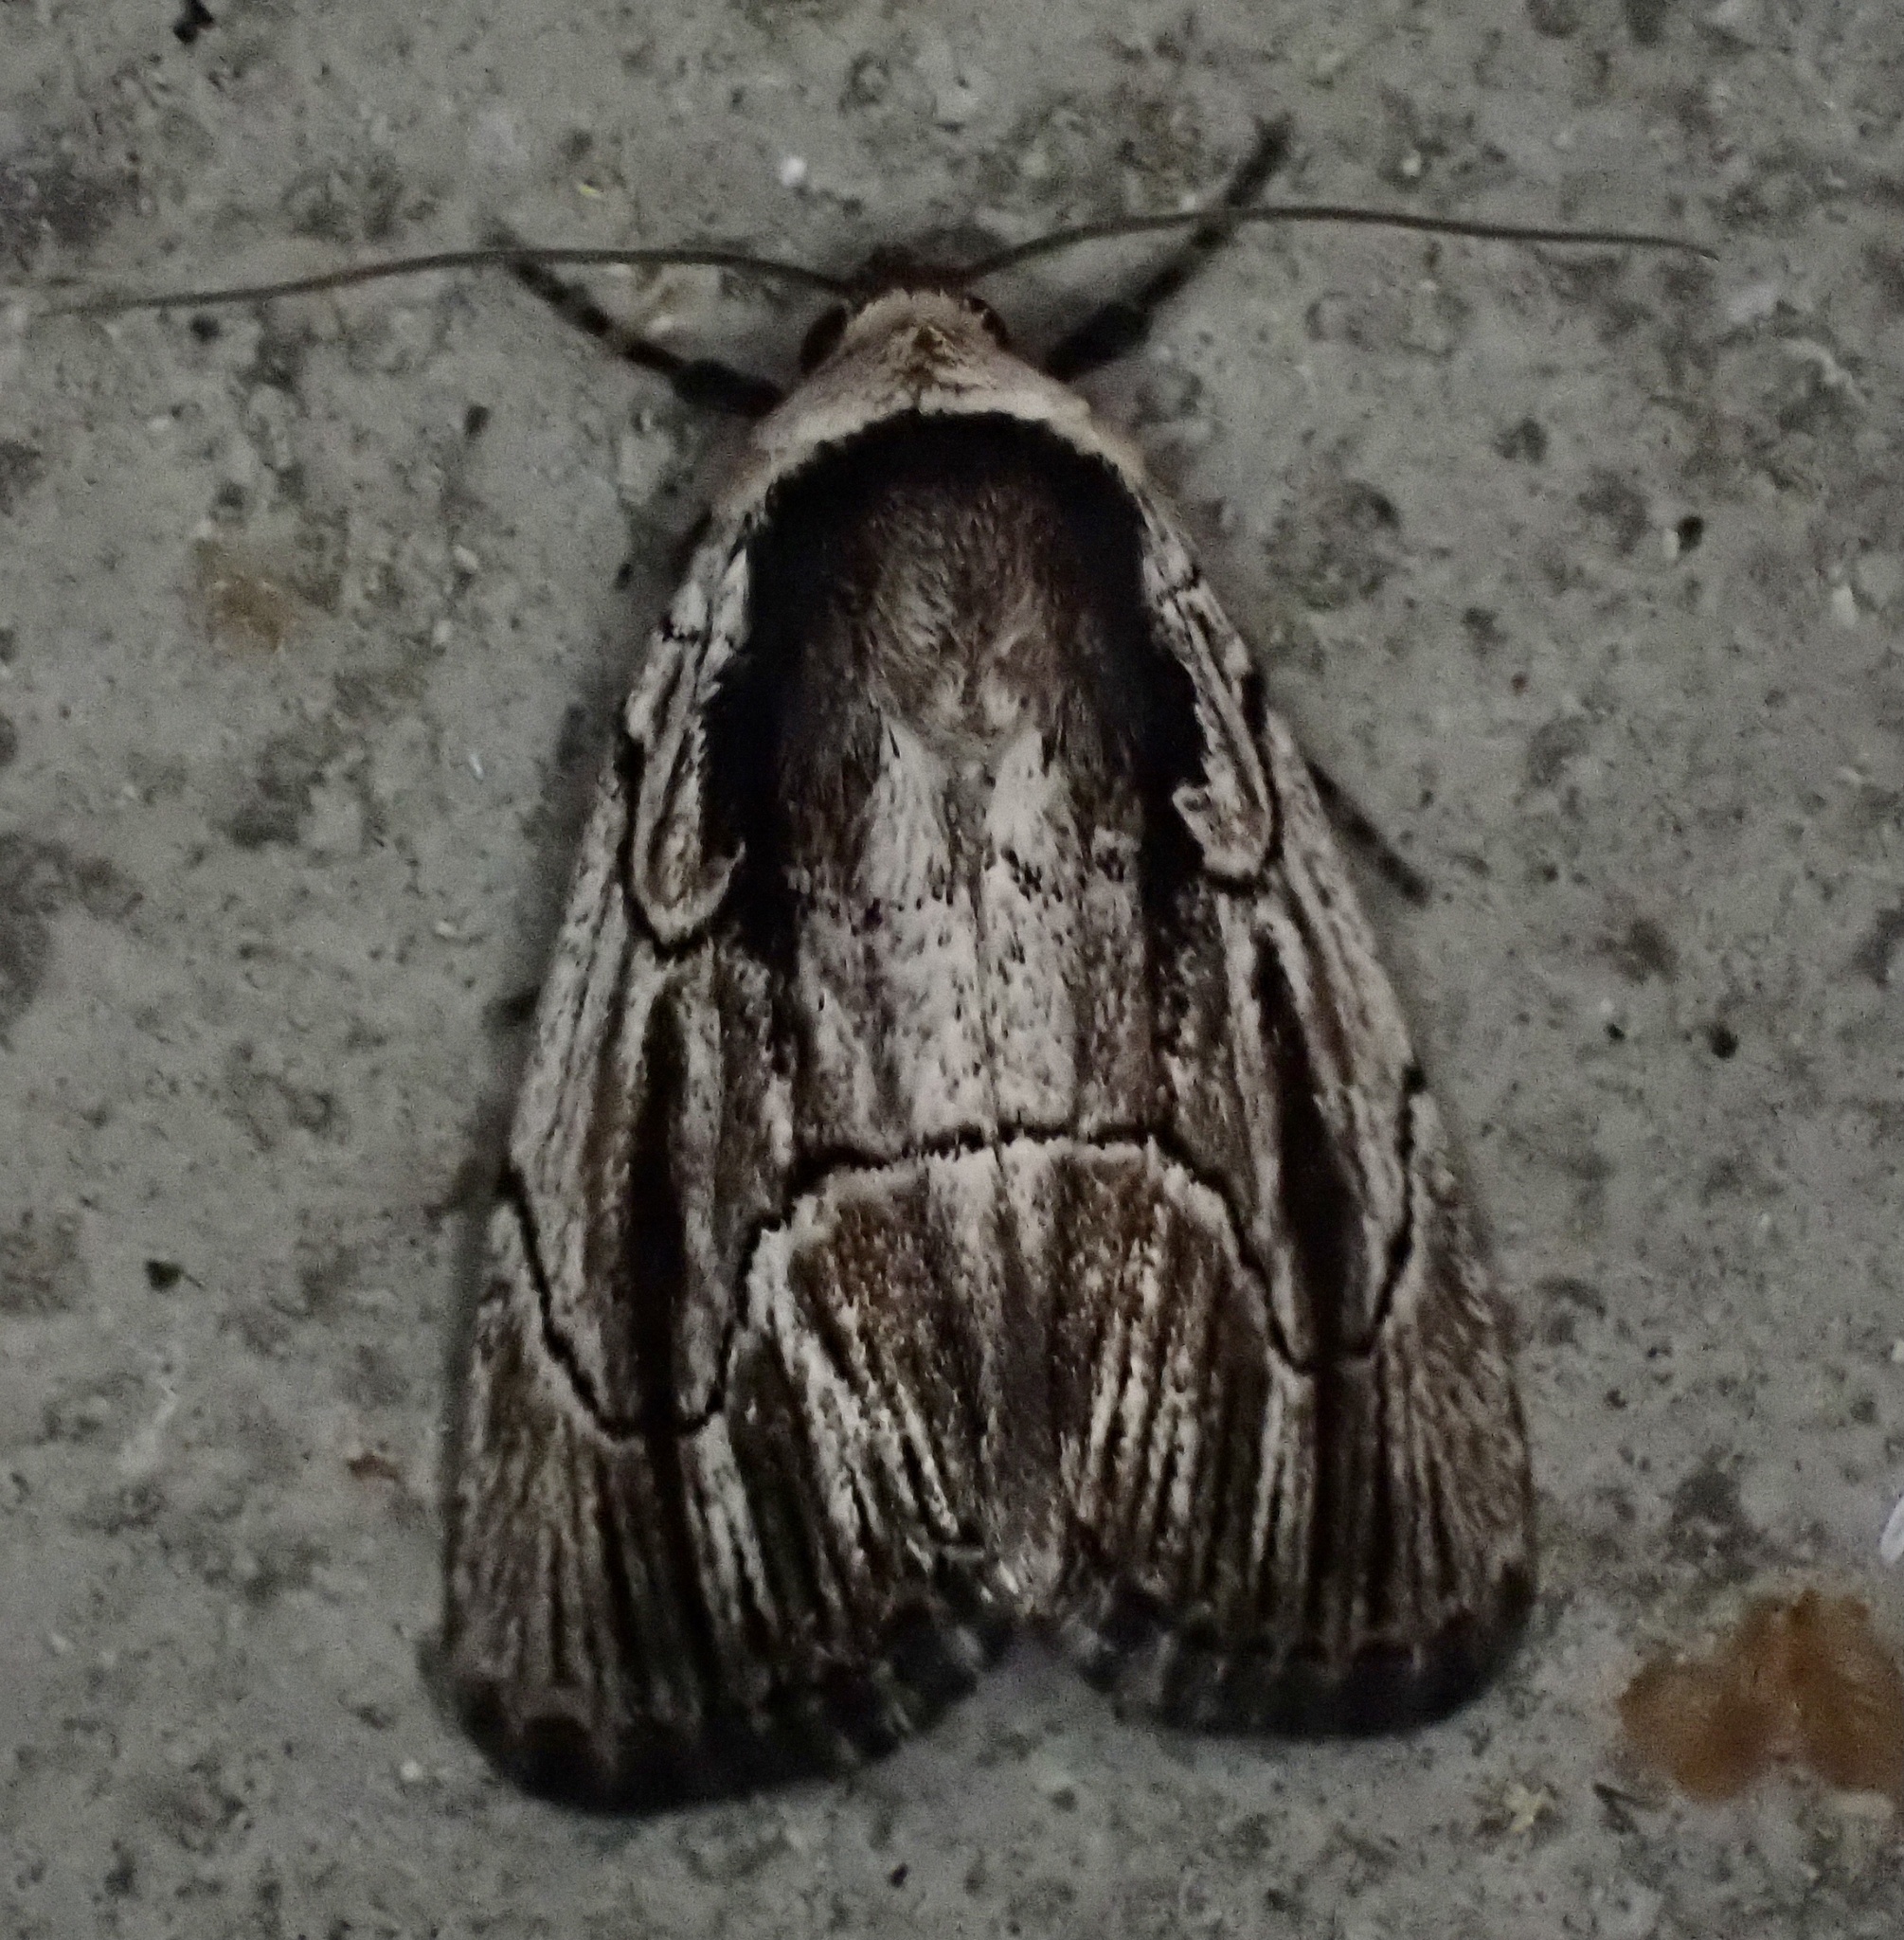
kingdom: Animalia
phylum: Arthropoda
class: Insecta
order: Lepidoptera
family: Noctuidae
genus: Sympistis
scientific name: Sympistis badistriga
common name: Brown-lined sallow moth
